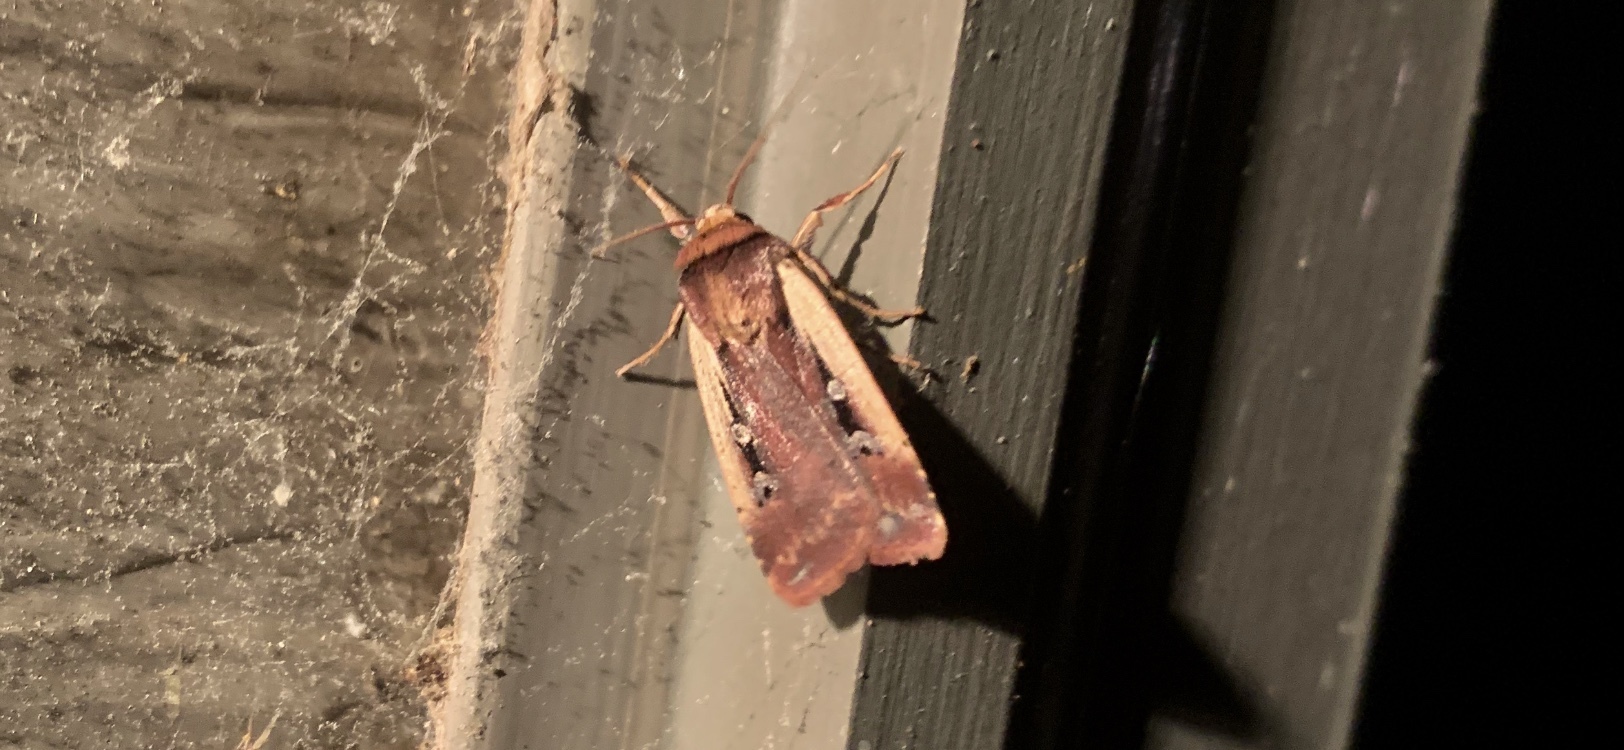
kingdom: Animalia
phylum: Arthropoda
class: Insecta
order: Lepidoptera
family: Noctuidae
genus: Ochropleura
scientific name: Ochropleura implecta
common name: Flame-shouldered dart
